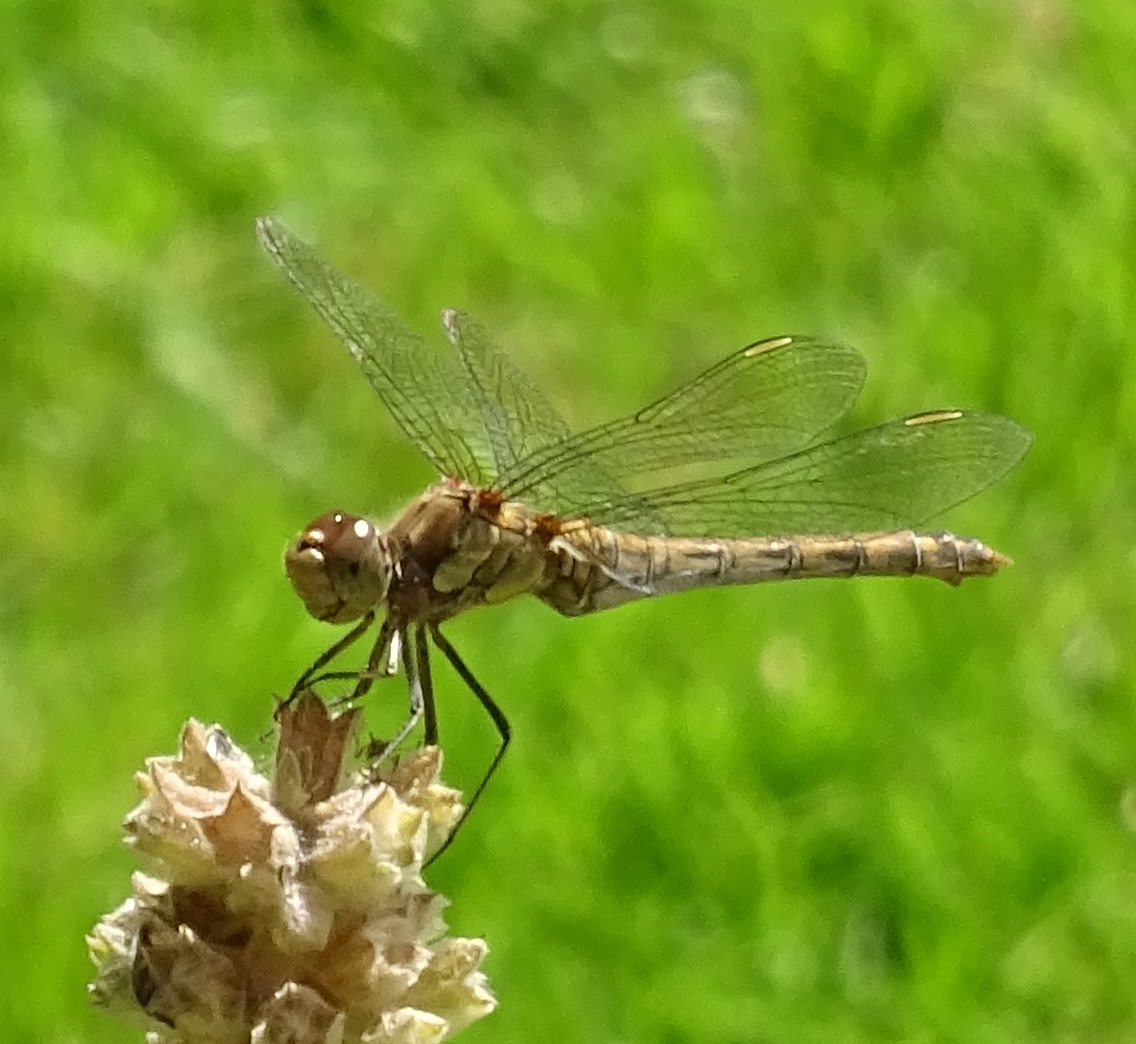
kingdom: Animalia
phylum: Arthropoda
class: Insecta
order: Odonata
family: Libellulidae
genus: Sympetrum
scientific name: Sympetrum striolatum
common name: Common darter
